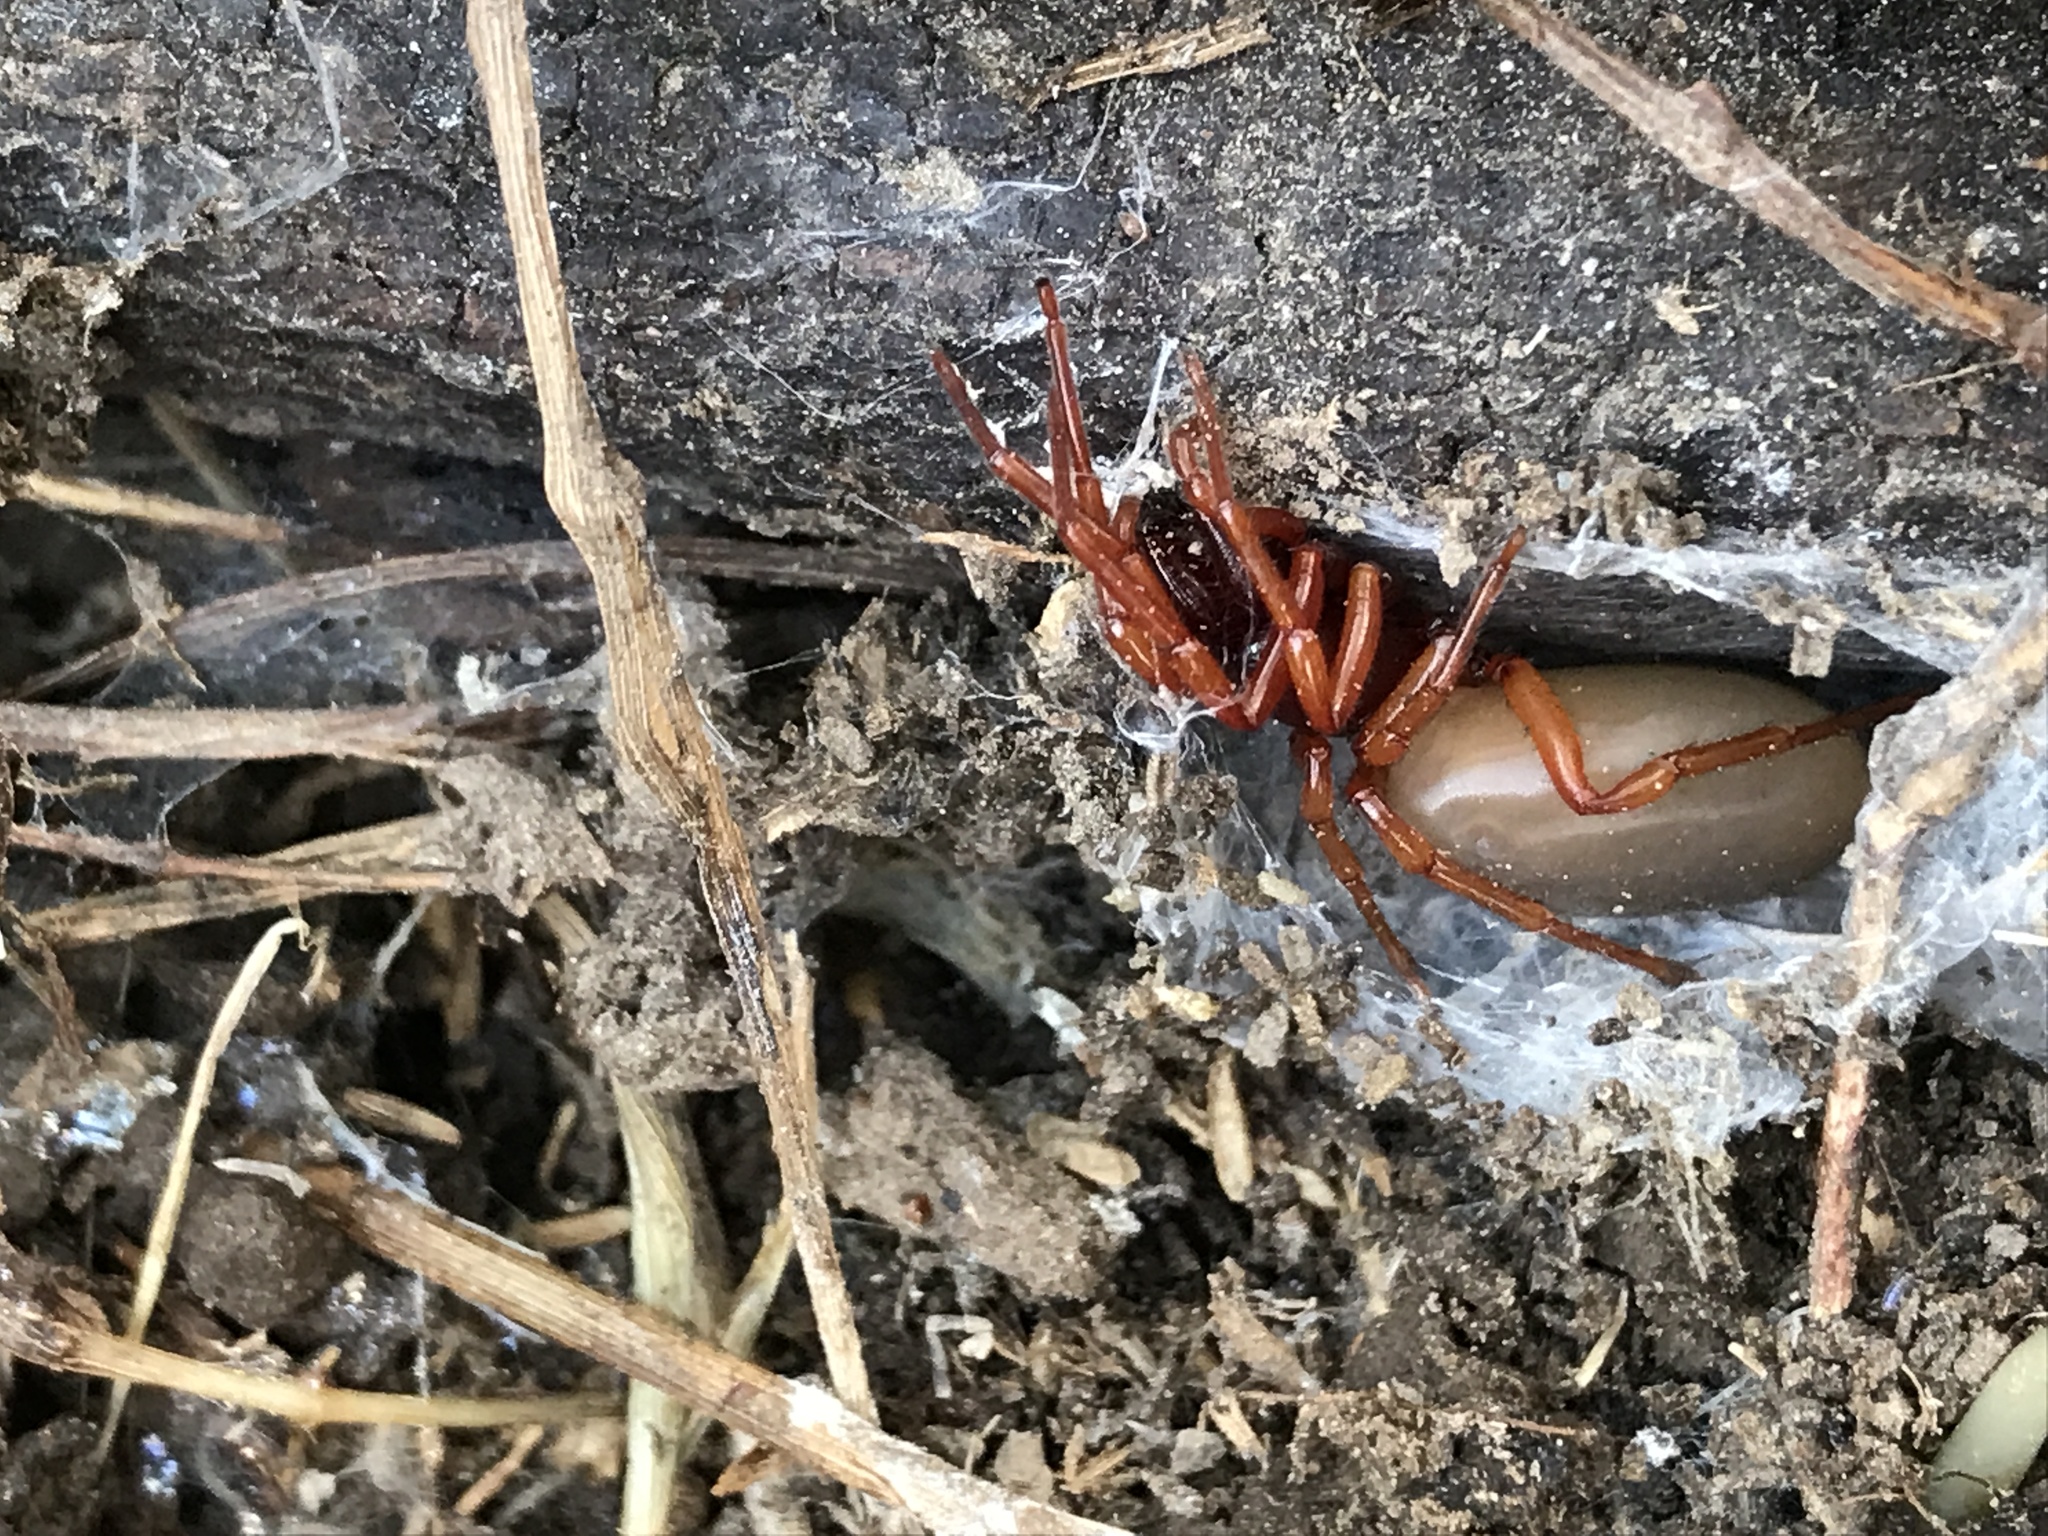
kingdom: Animalia
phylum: Arthropoda
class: Arachnida
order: Araneae
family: Dysderidae
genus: Dysdera
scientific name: Dysdera crocata
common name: Woodlouse spider
